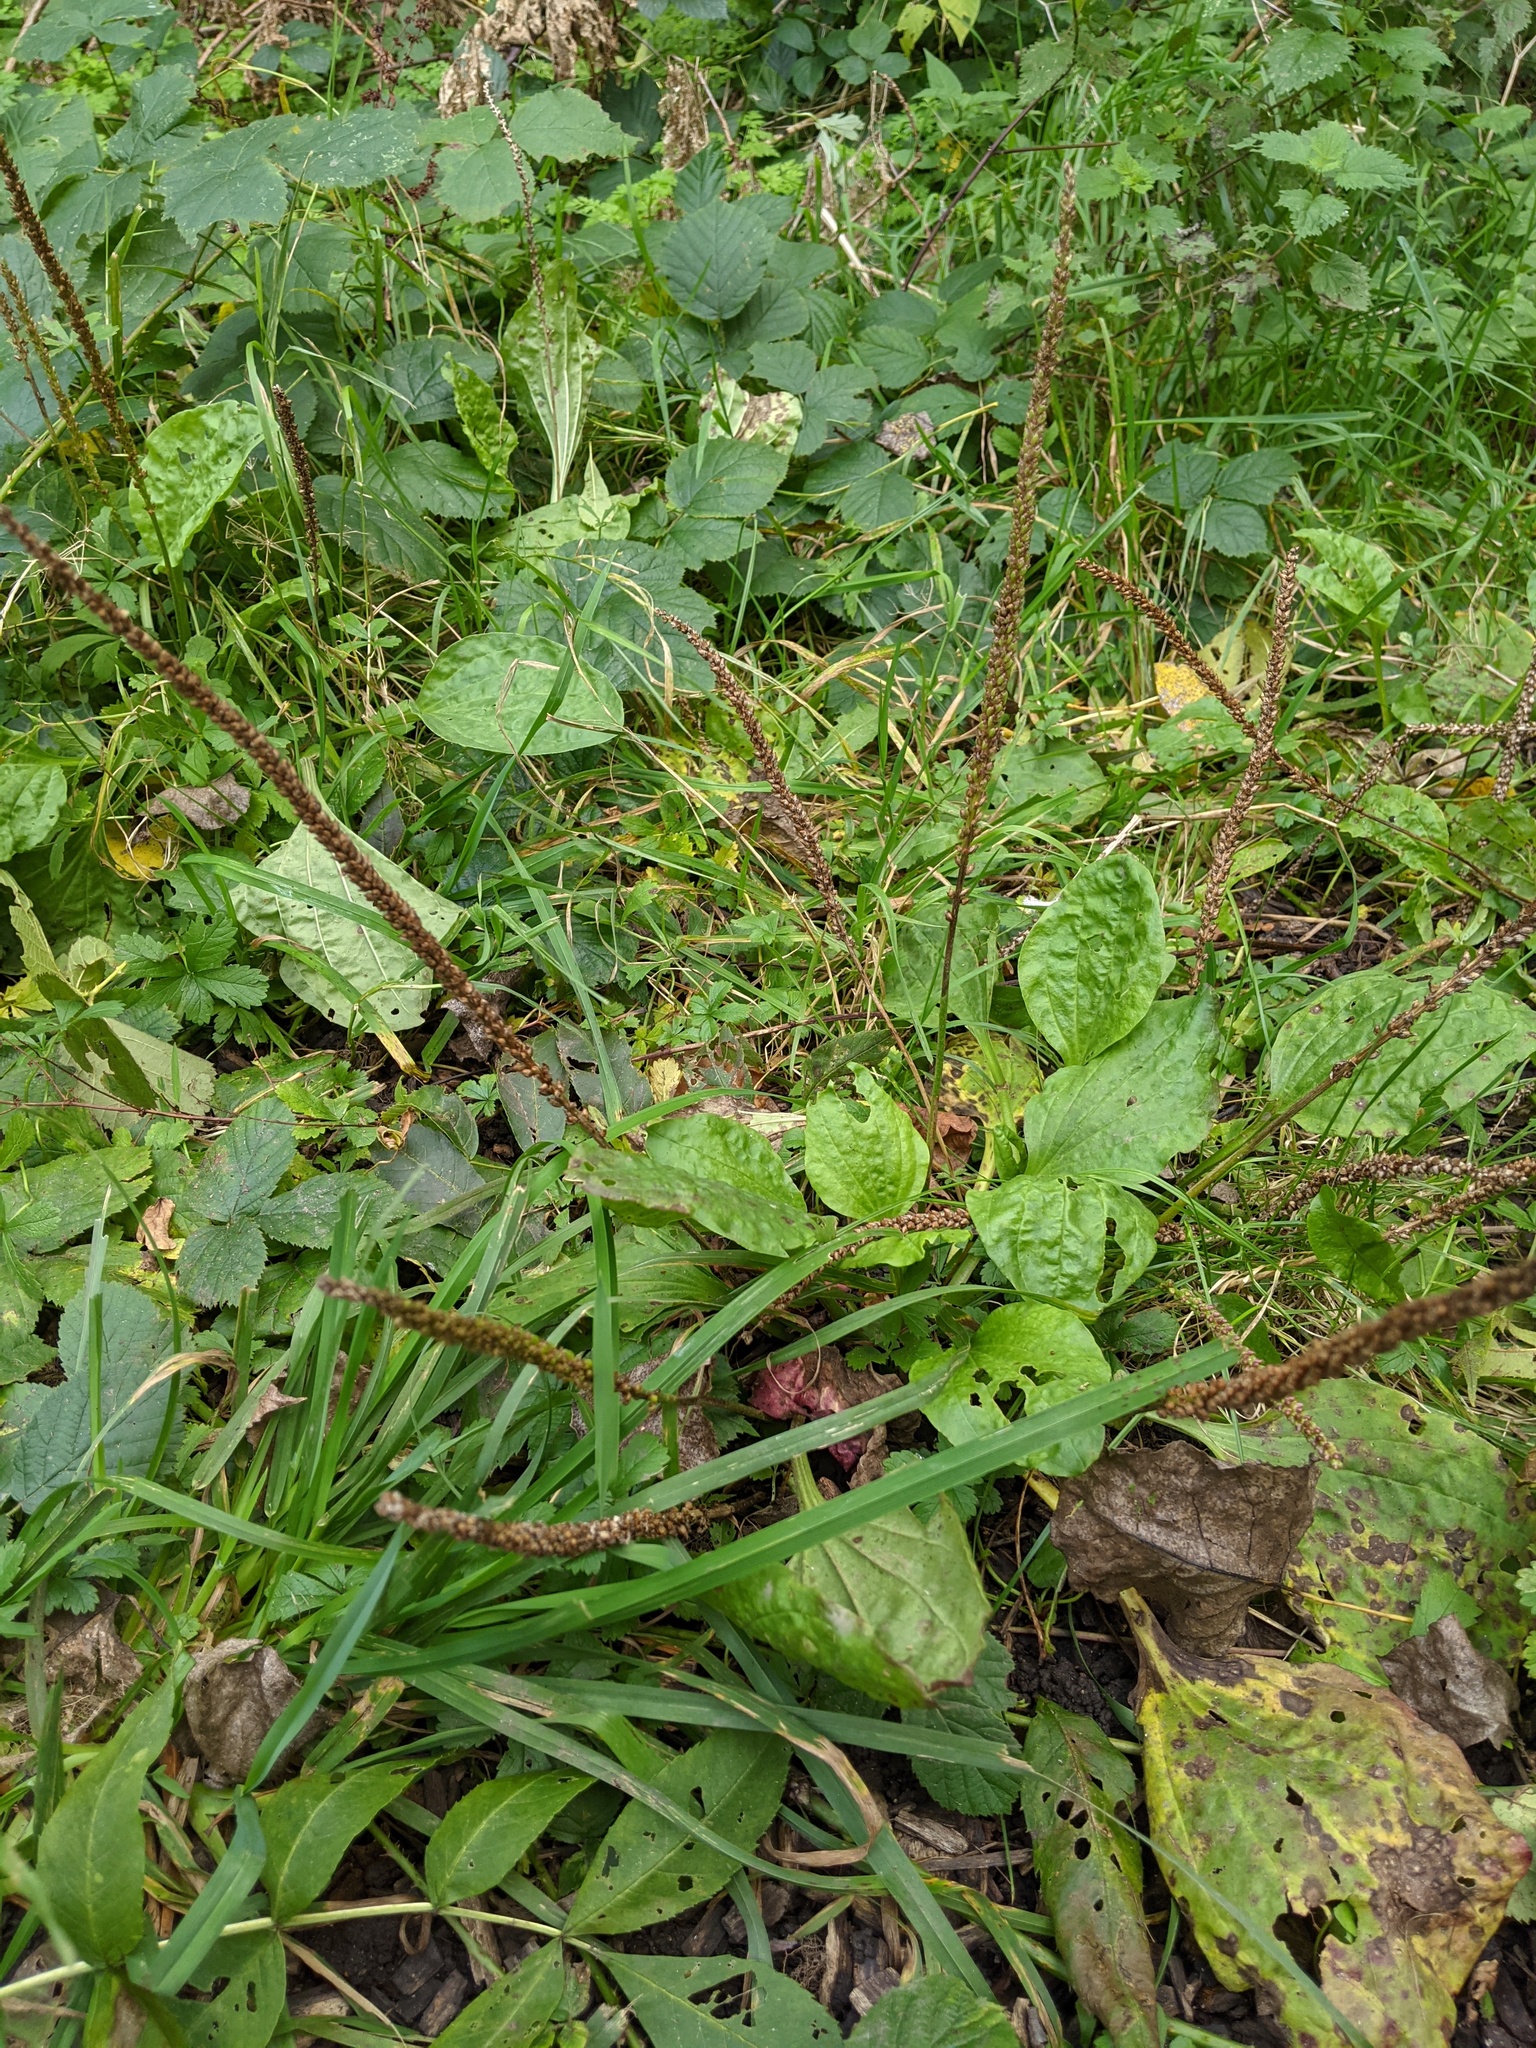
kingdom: Plantae
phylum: Tracheophyta
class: Magnoliopsida
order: Lamiales
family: Plantaginaceae
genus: Plantago
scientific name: Plantago major
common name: Common plantain
